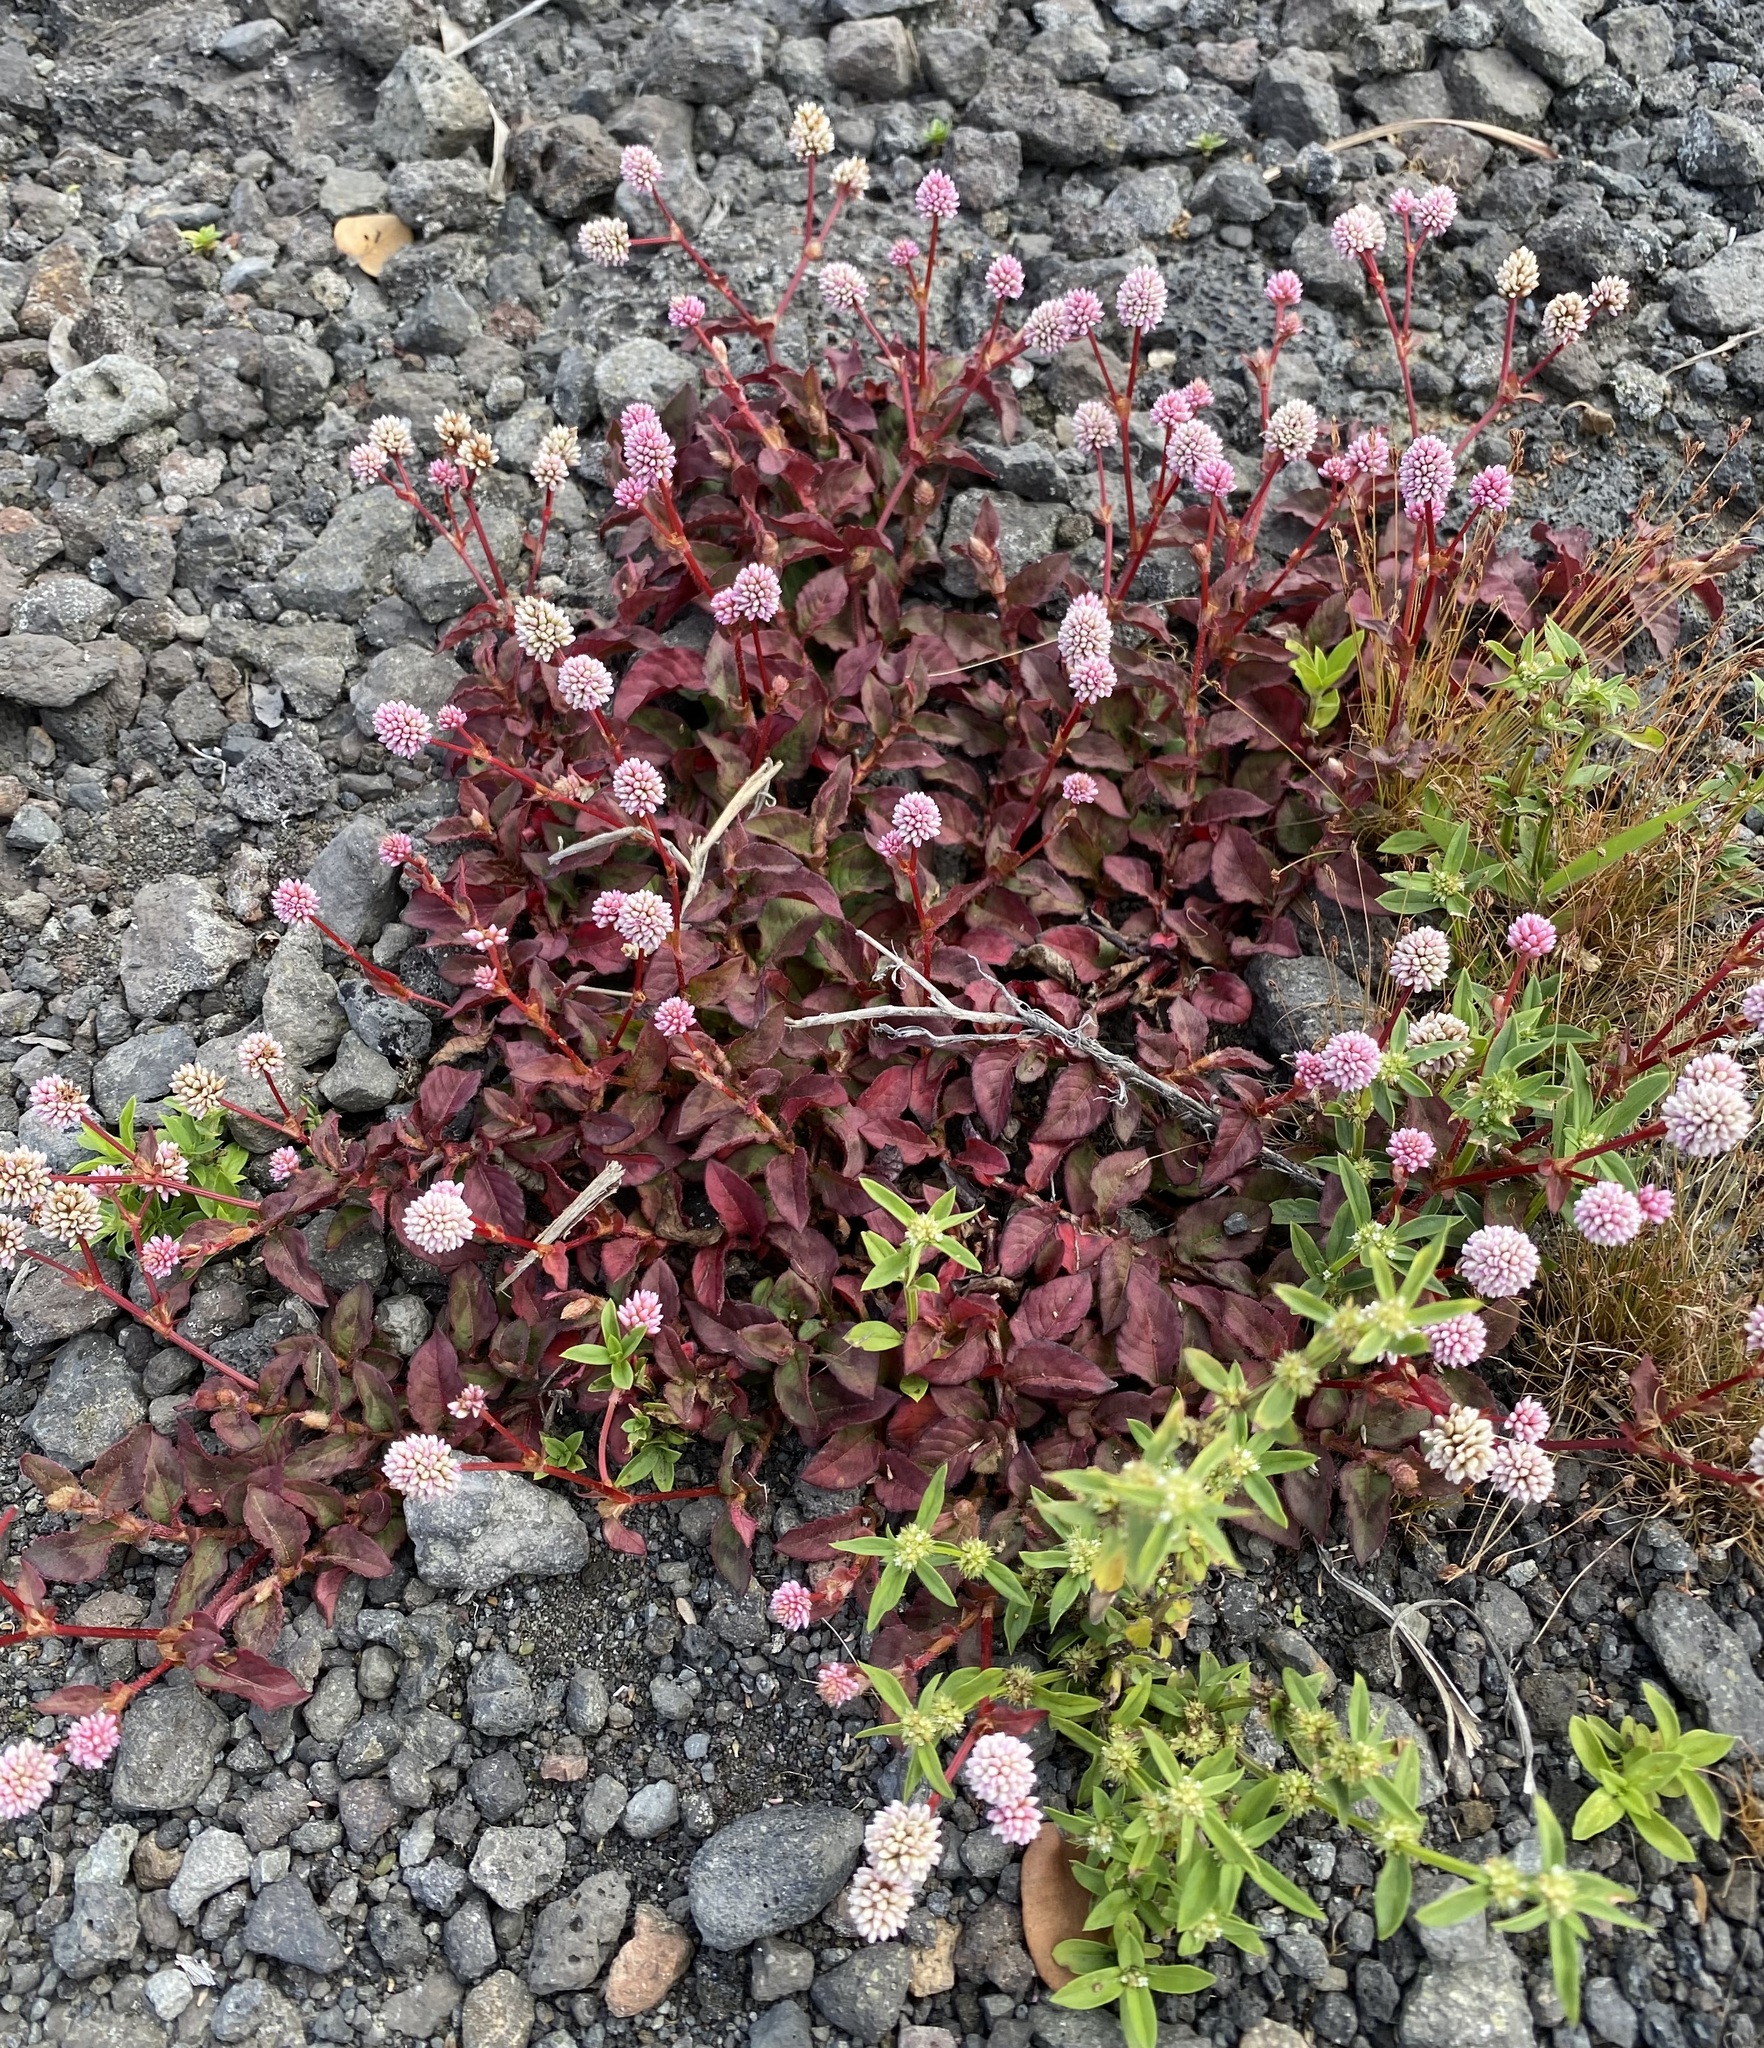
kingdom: Plantae
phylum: Tracheophyta
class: Magnoliopsida
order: Caryophyllales
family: Polygonaceae
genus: Persicaria
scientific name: Persicaria capitata
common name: Pinkhead smartweed
